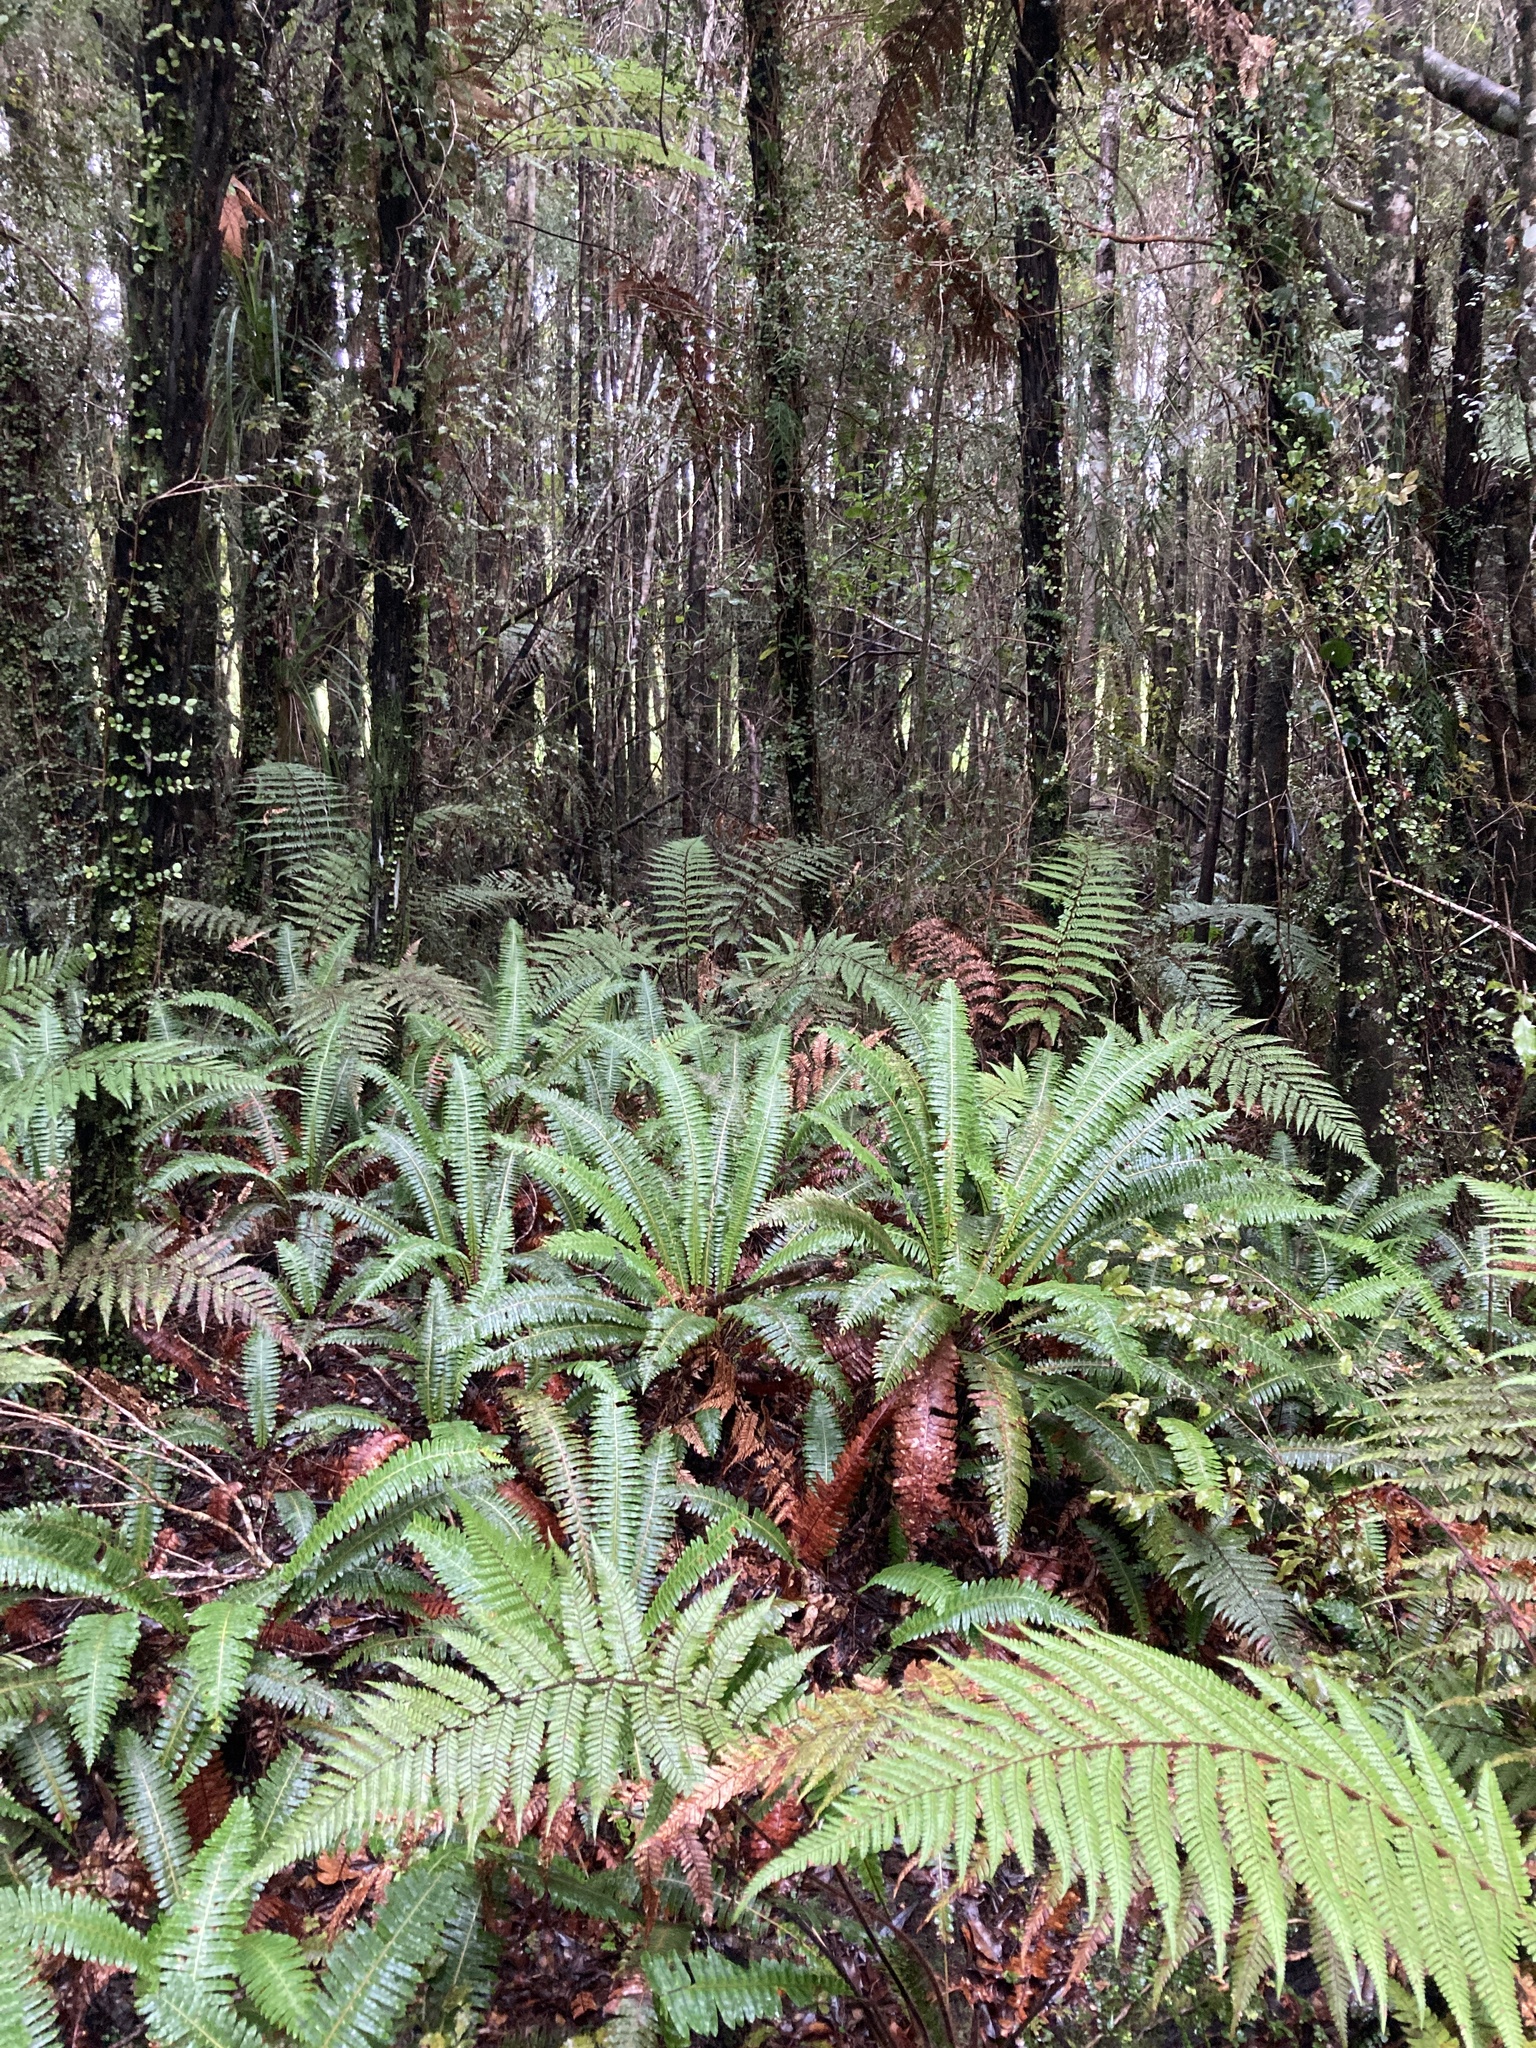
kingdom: Plantae
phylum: Tracheophyta
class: Polypodiopsida
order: Polypodiales
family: Blechnaceae
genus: Lomaria
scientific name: Lomaria discolor
